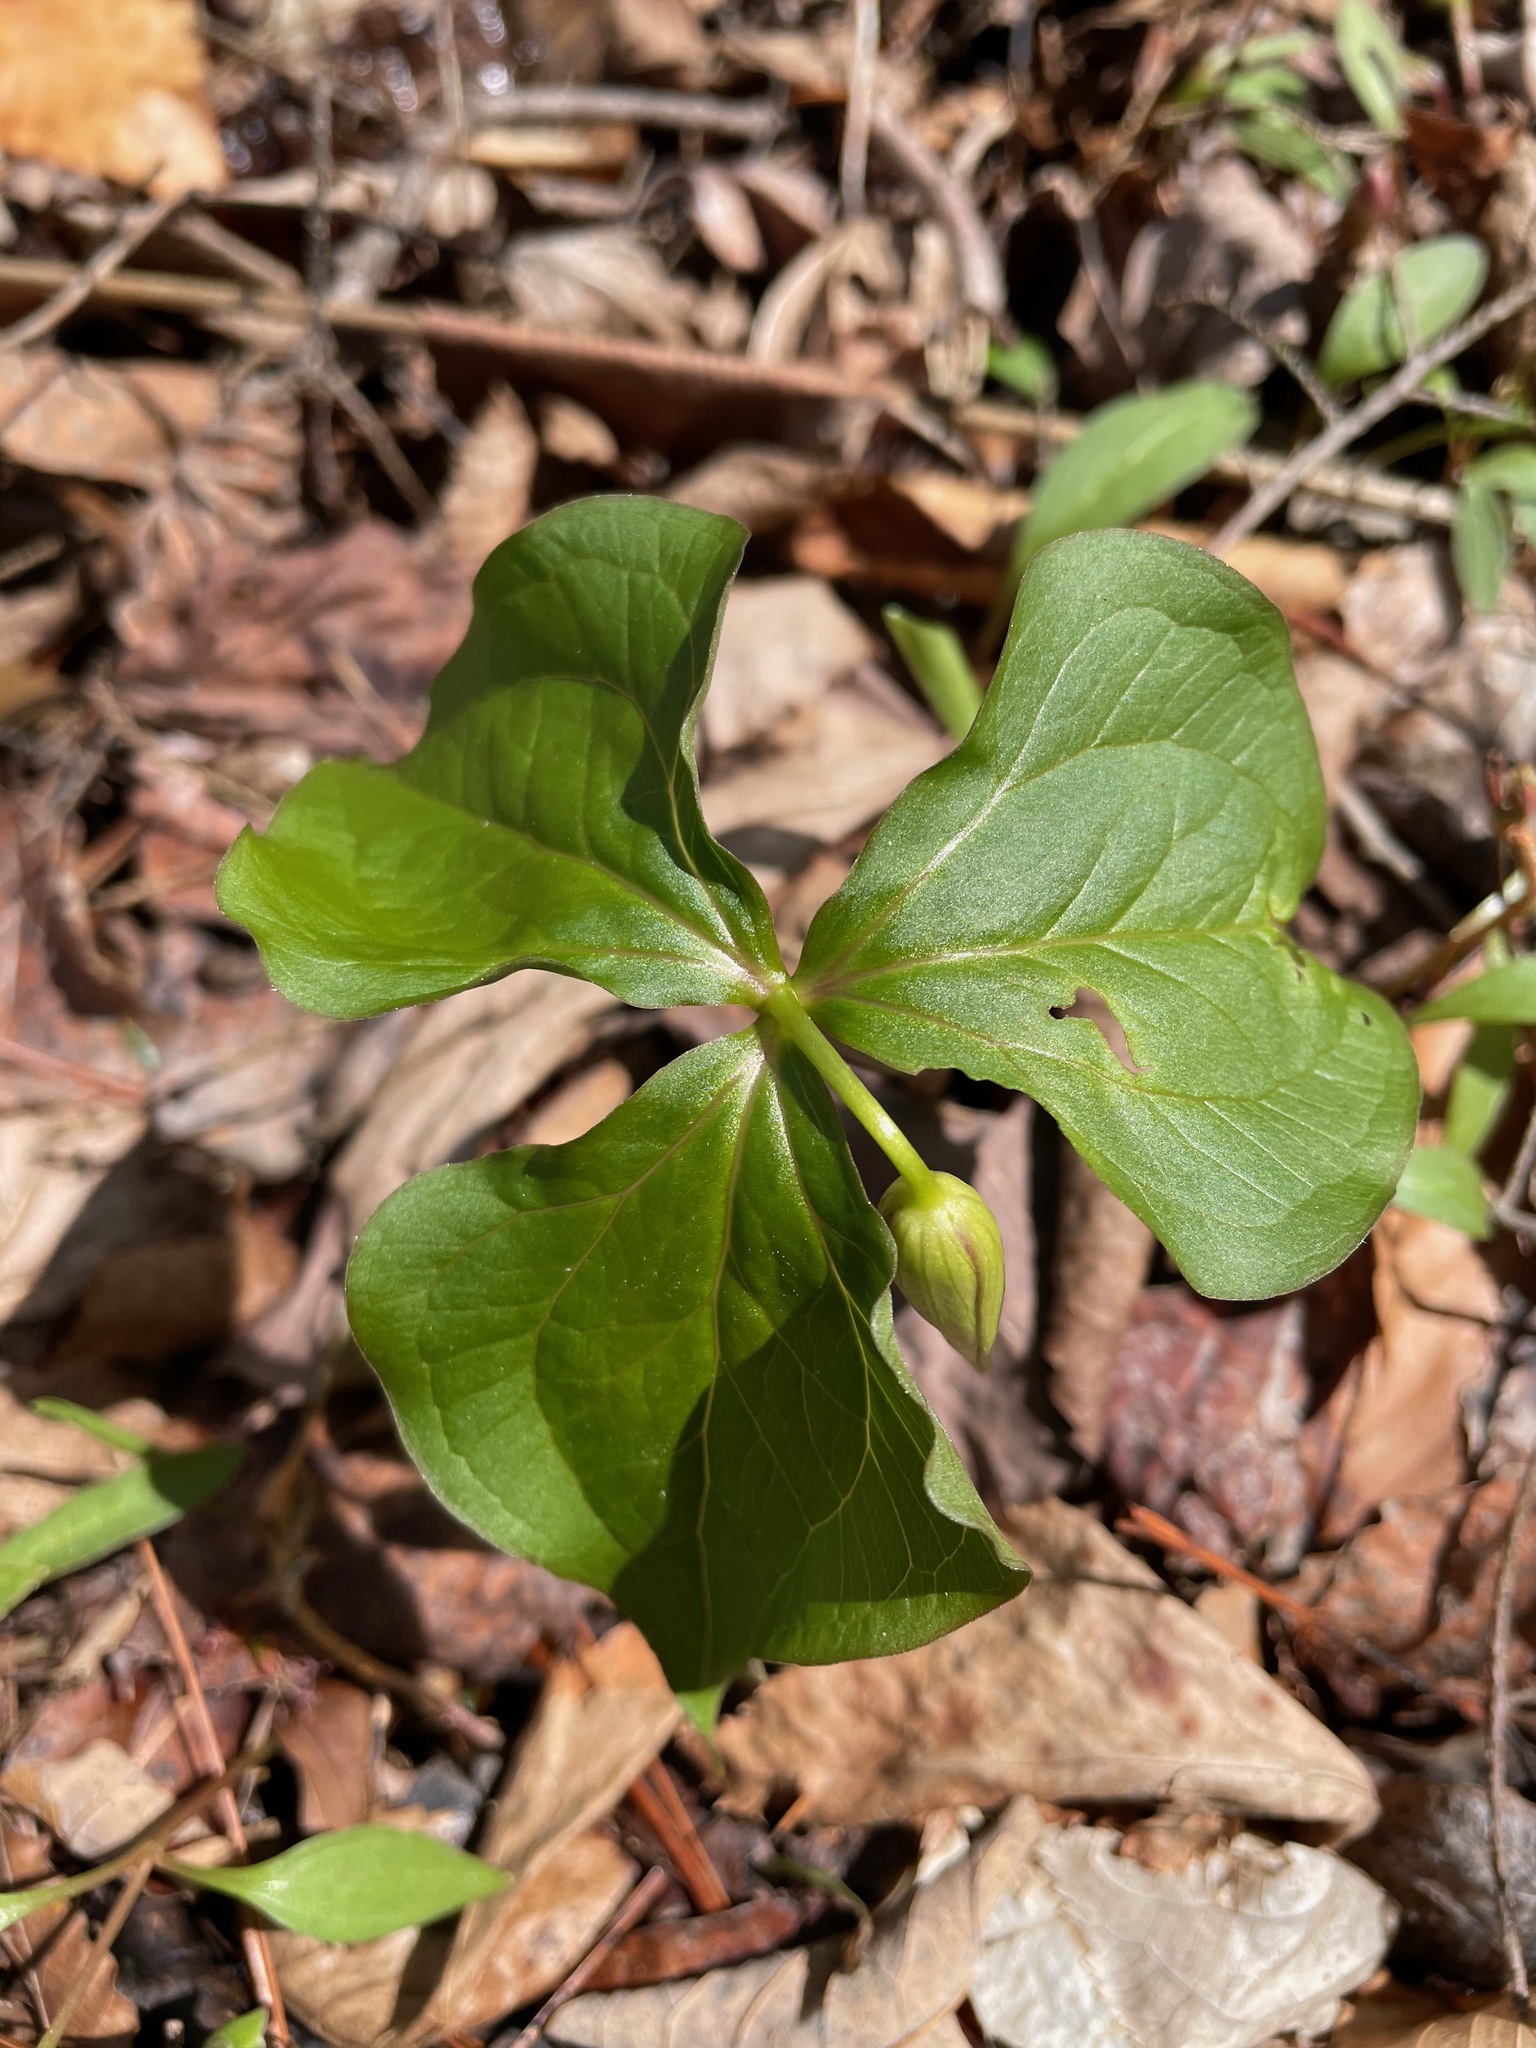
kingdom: Plantae
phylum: Tracheophyta
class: Liliopsida
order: Liliales
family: Melanthiaceae
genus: Trillium
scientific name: Trillium erectum
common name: Purple trillium
